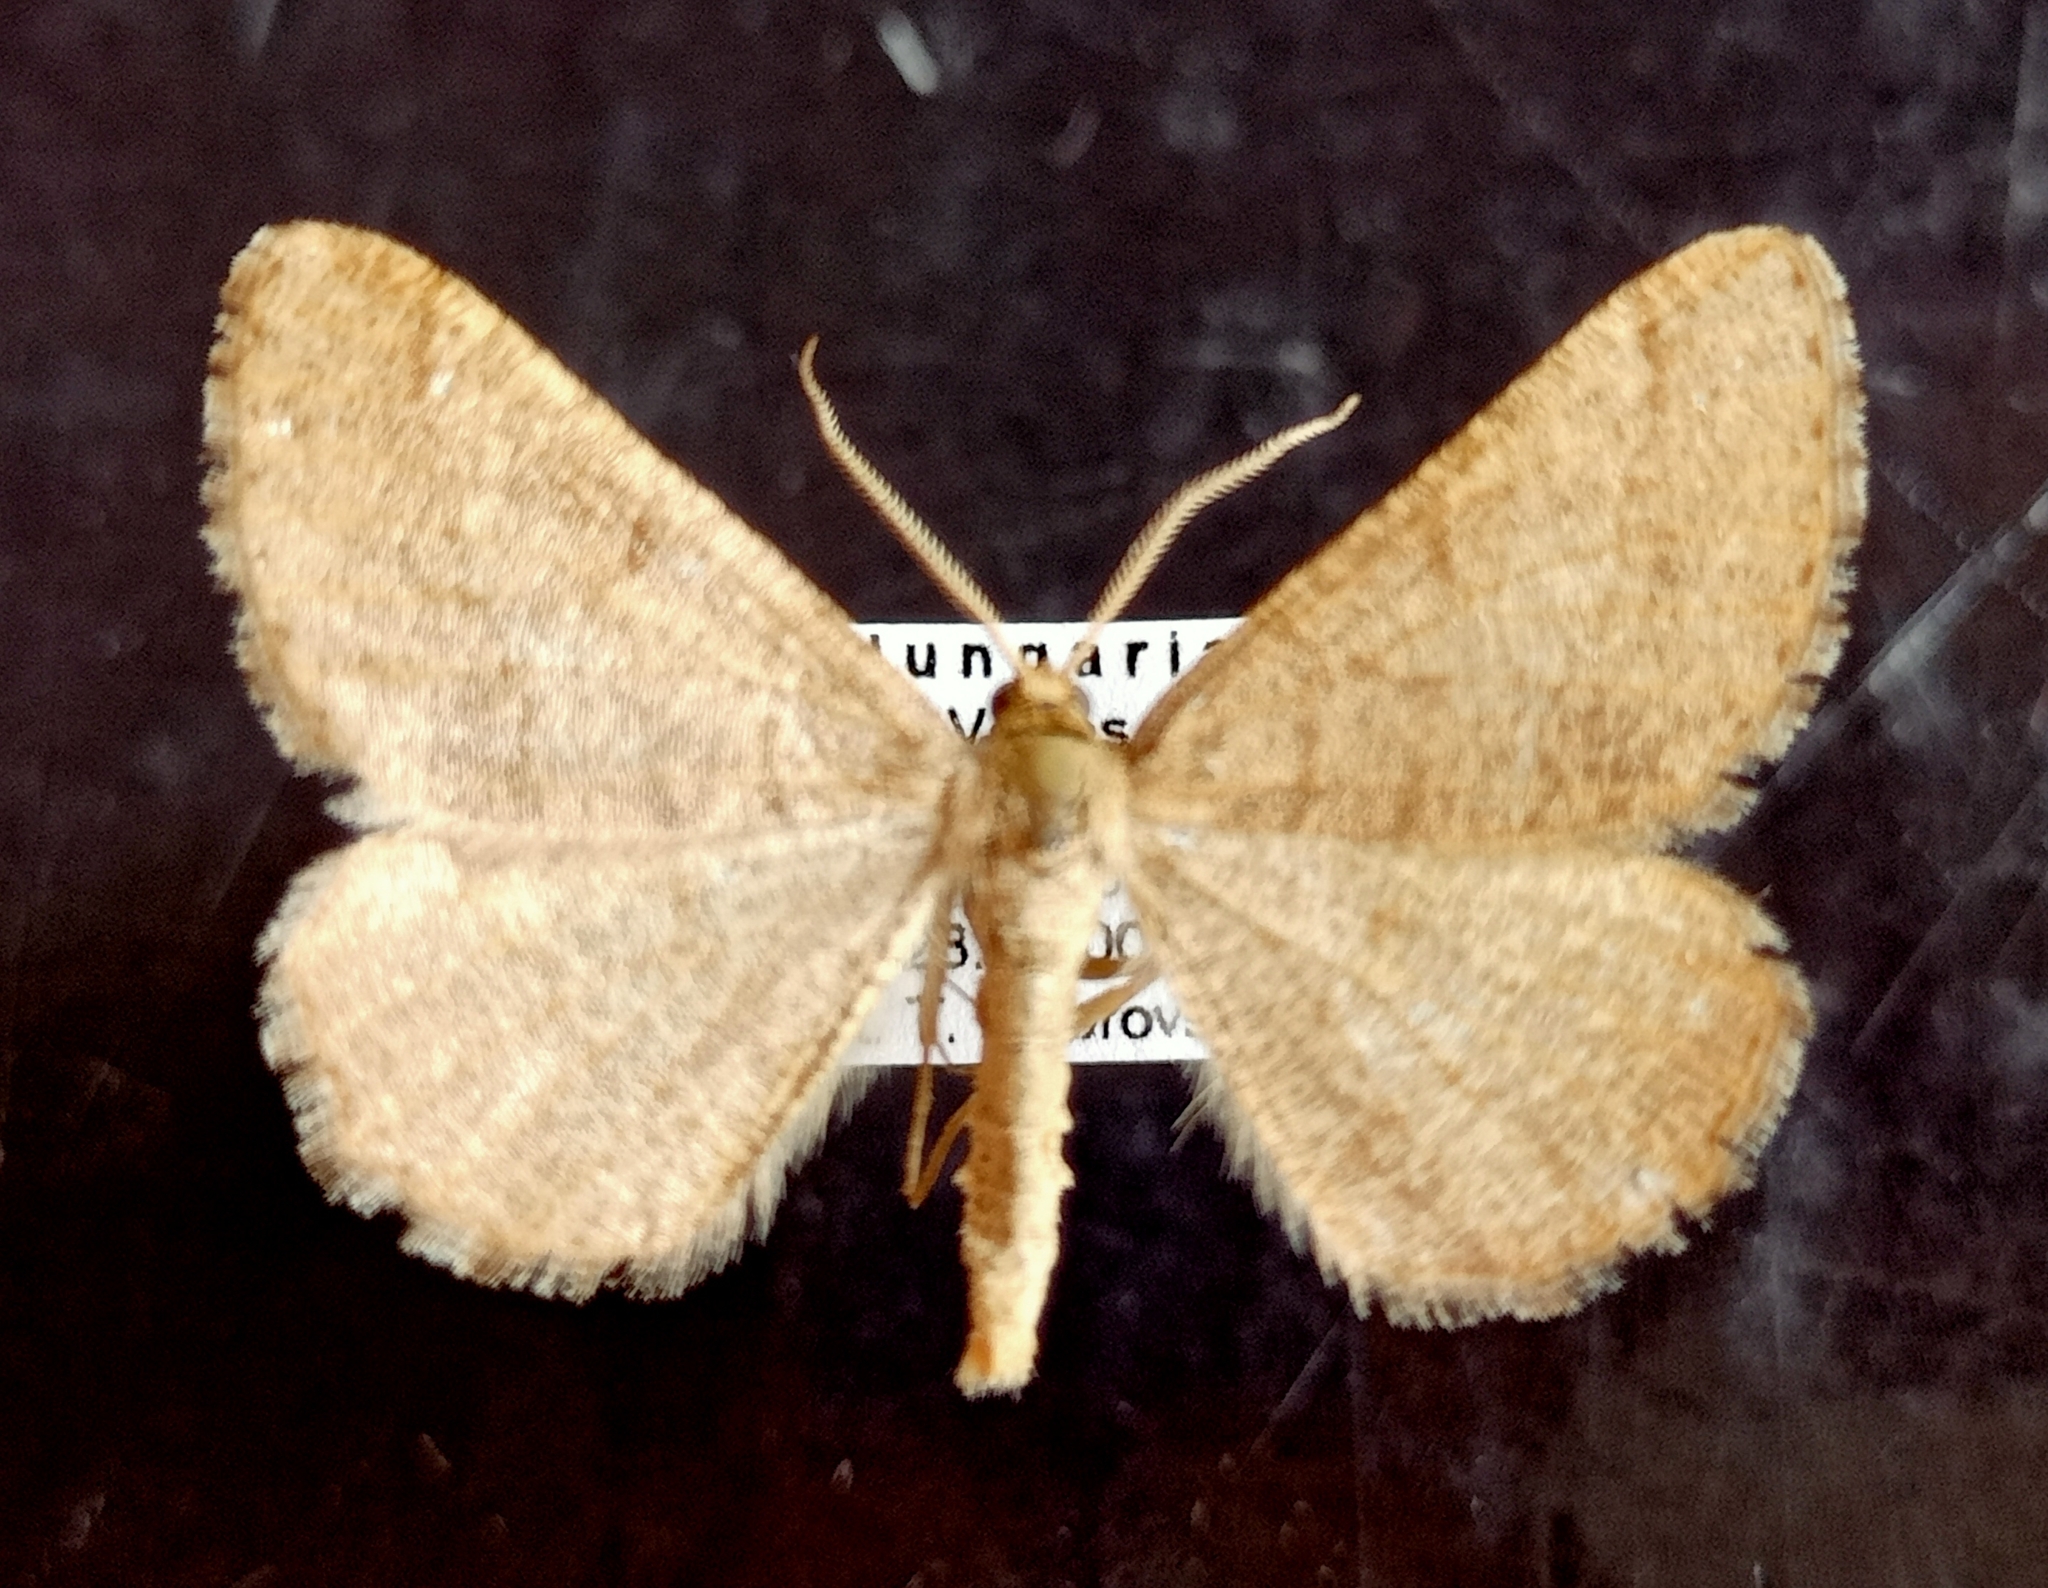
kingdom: Animalia
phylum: Arthropoda
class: Insecta
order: Lepidoptera
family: Geometridae
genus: Tephrina
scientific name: Tephrina murinaria
